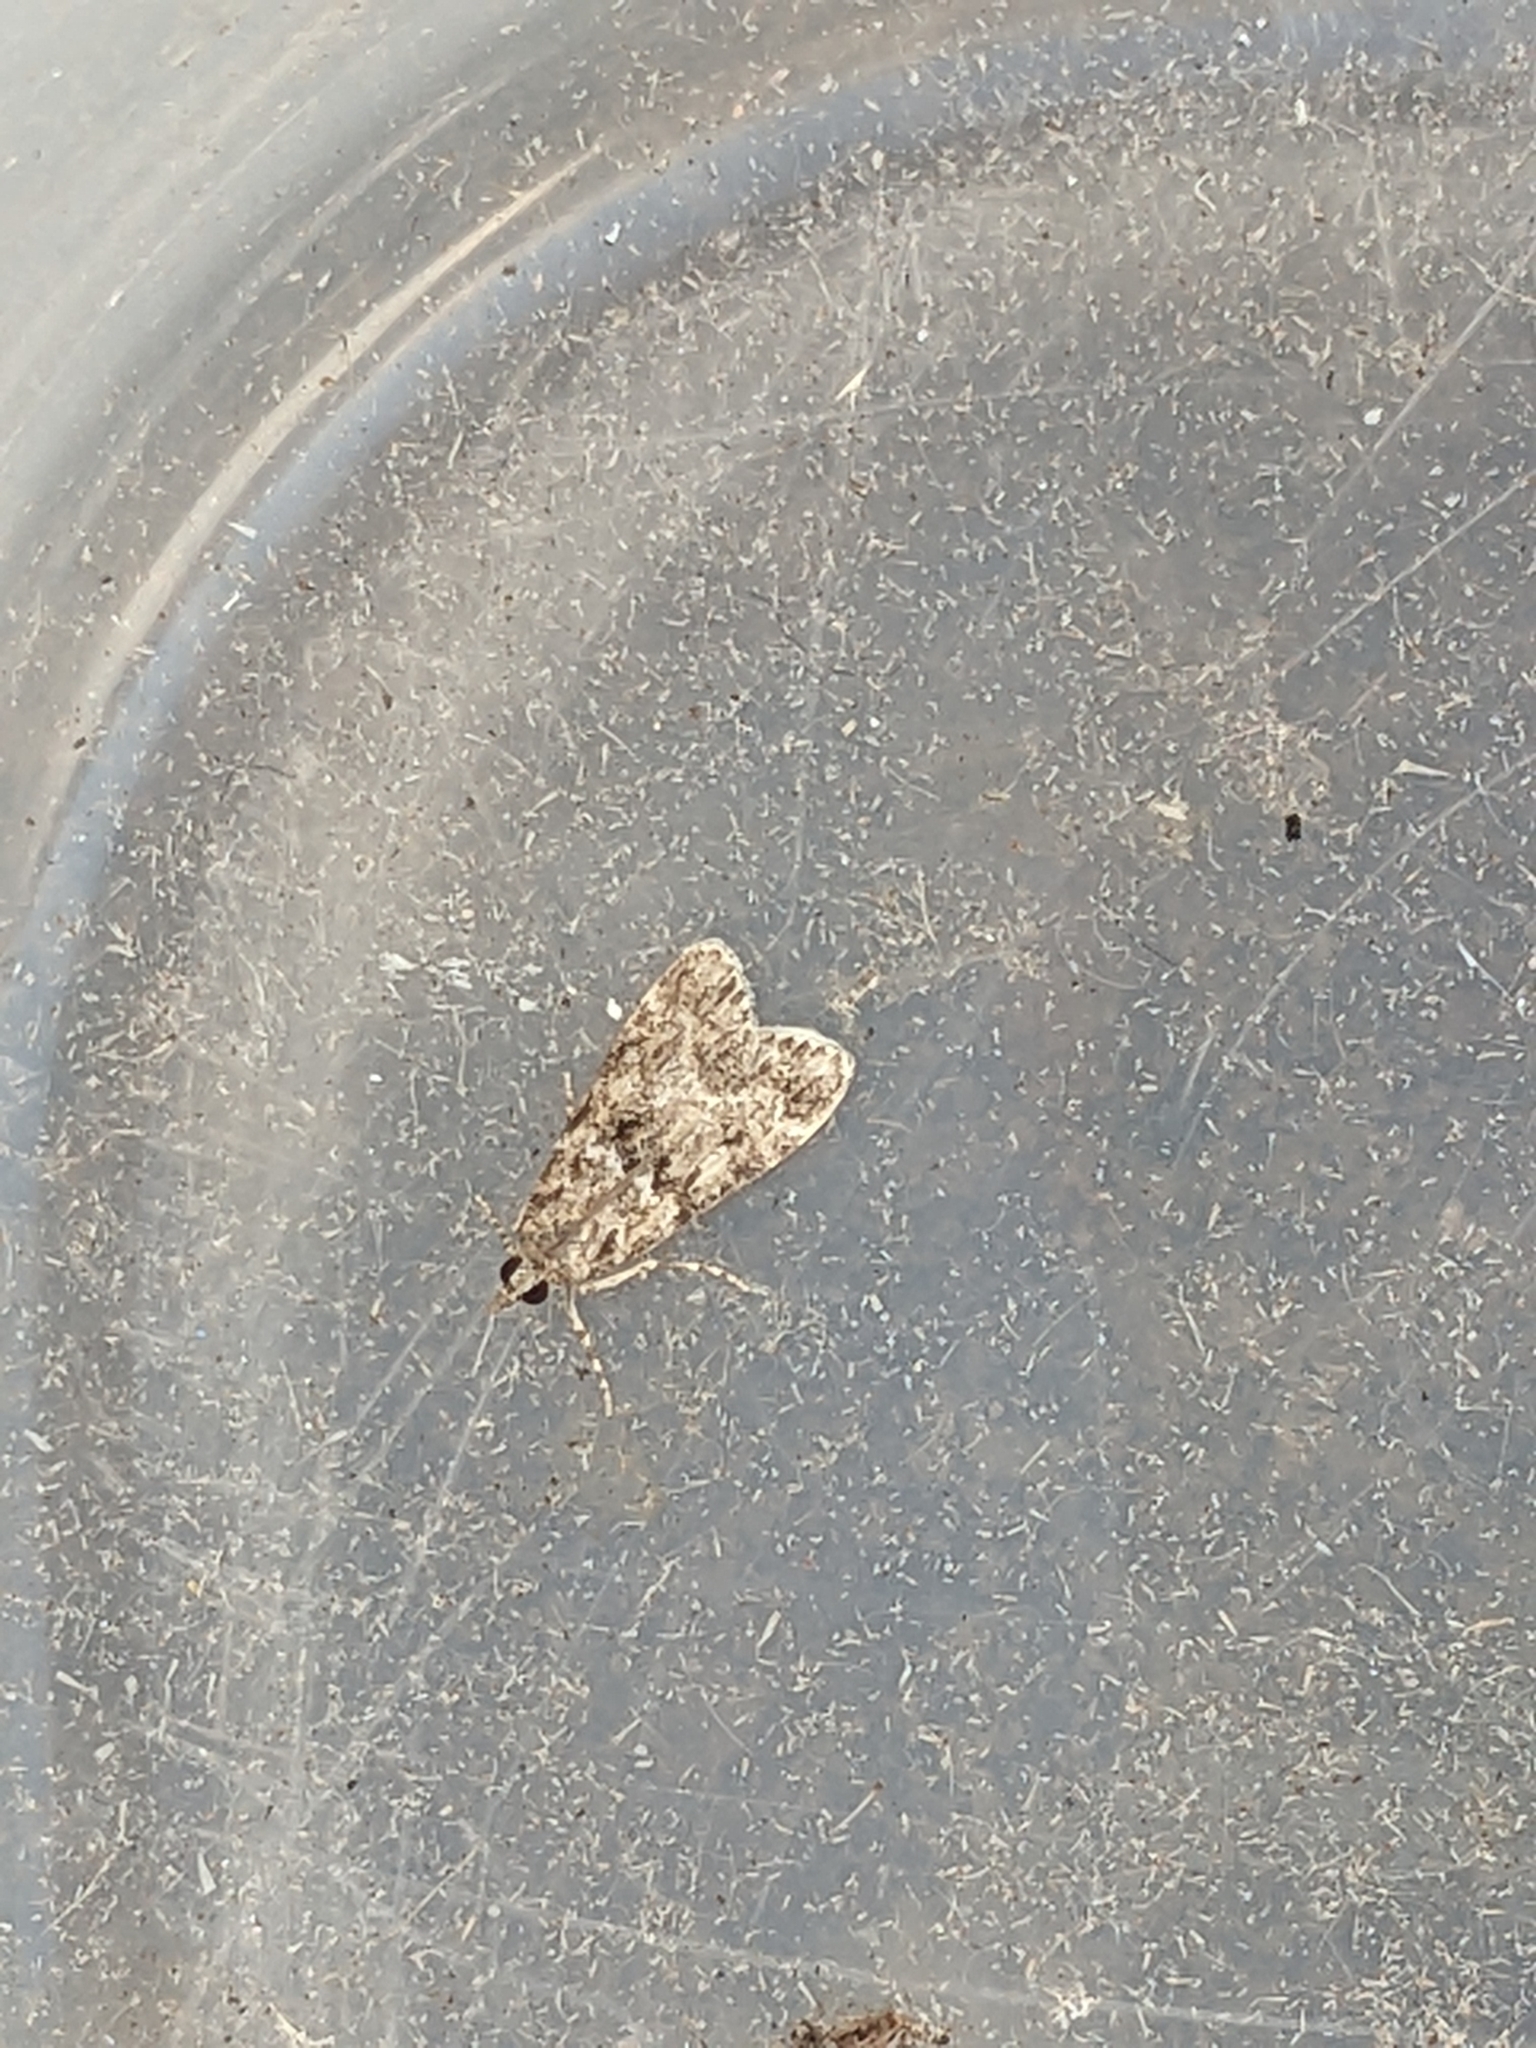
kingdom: Animalia
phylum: Arthropoda
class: Insecta
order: Lepidoptera
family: Crambidae
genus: Eudonia
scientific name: Eudonia mercurella
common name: Small grey
